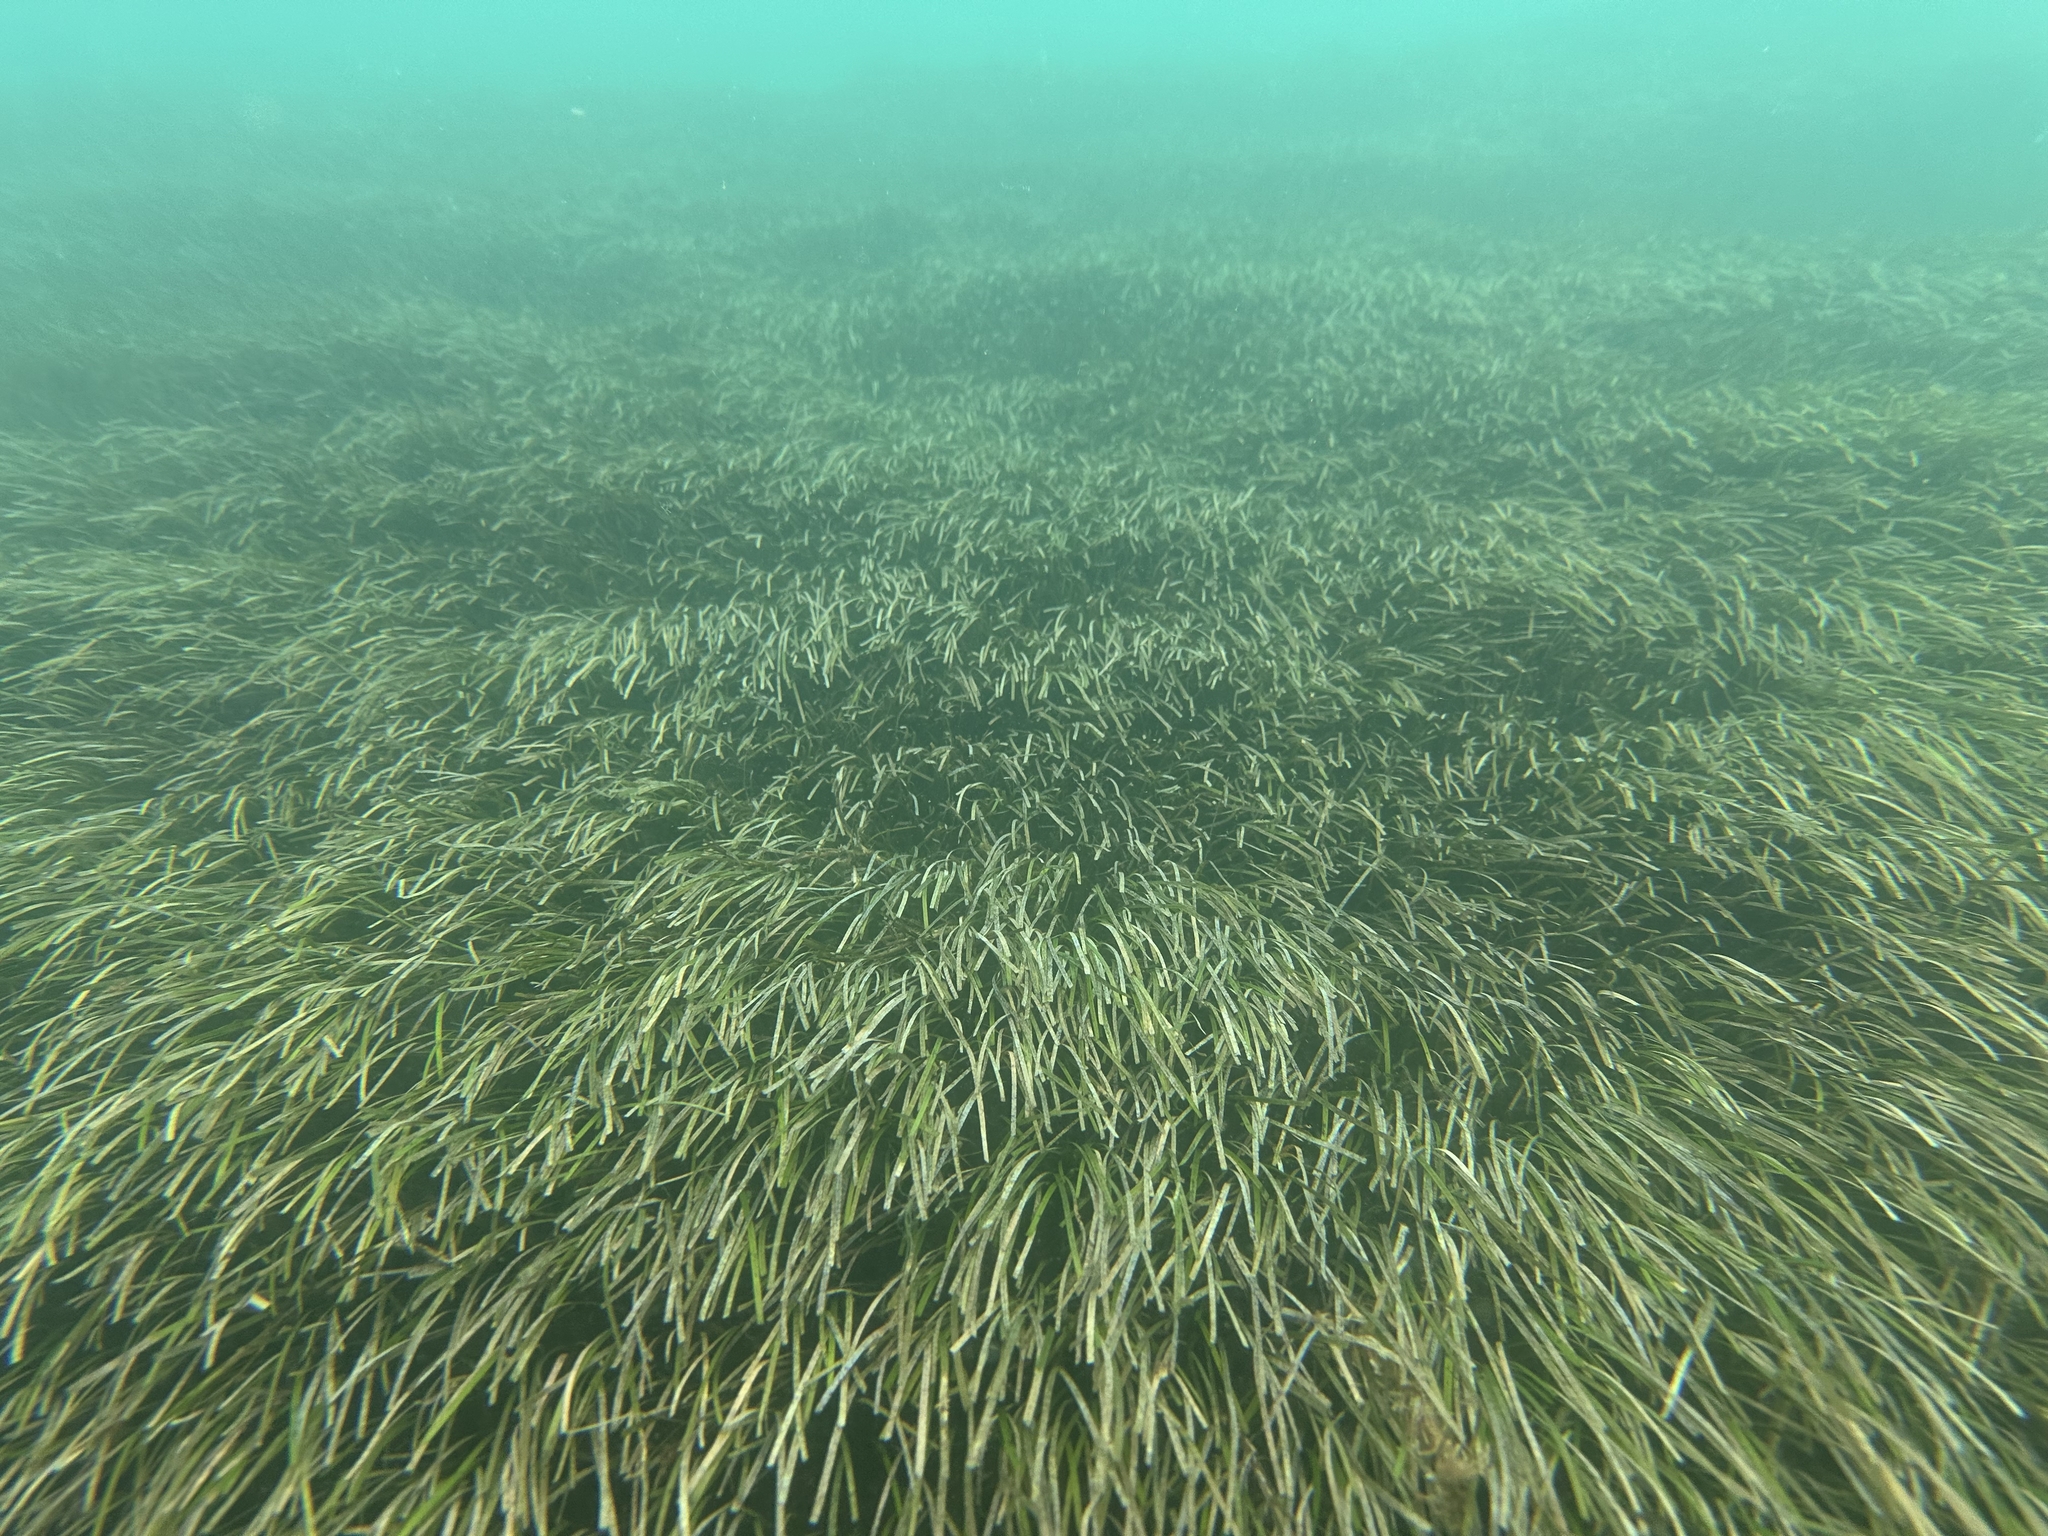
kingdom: Plantae
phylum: Tracheophyta
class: Liliopsida
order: Alismatales
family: Zosteraceae
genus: Zostera
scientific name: Zostera muelleri
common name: Species code: zc
